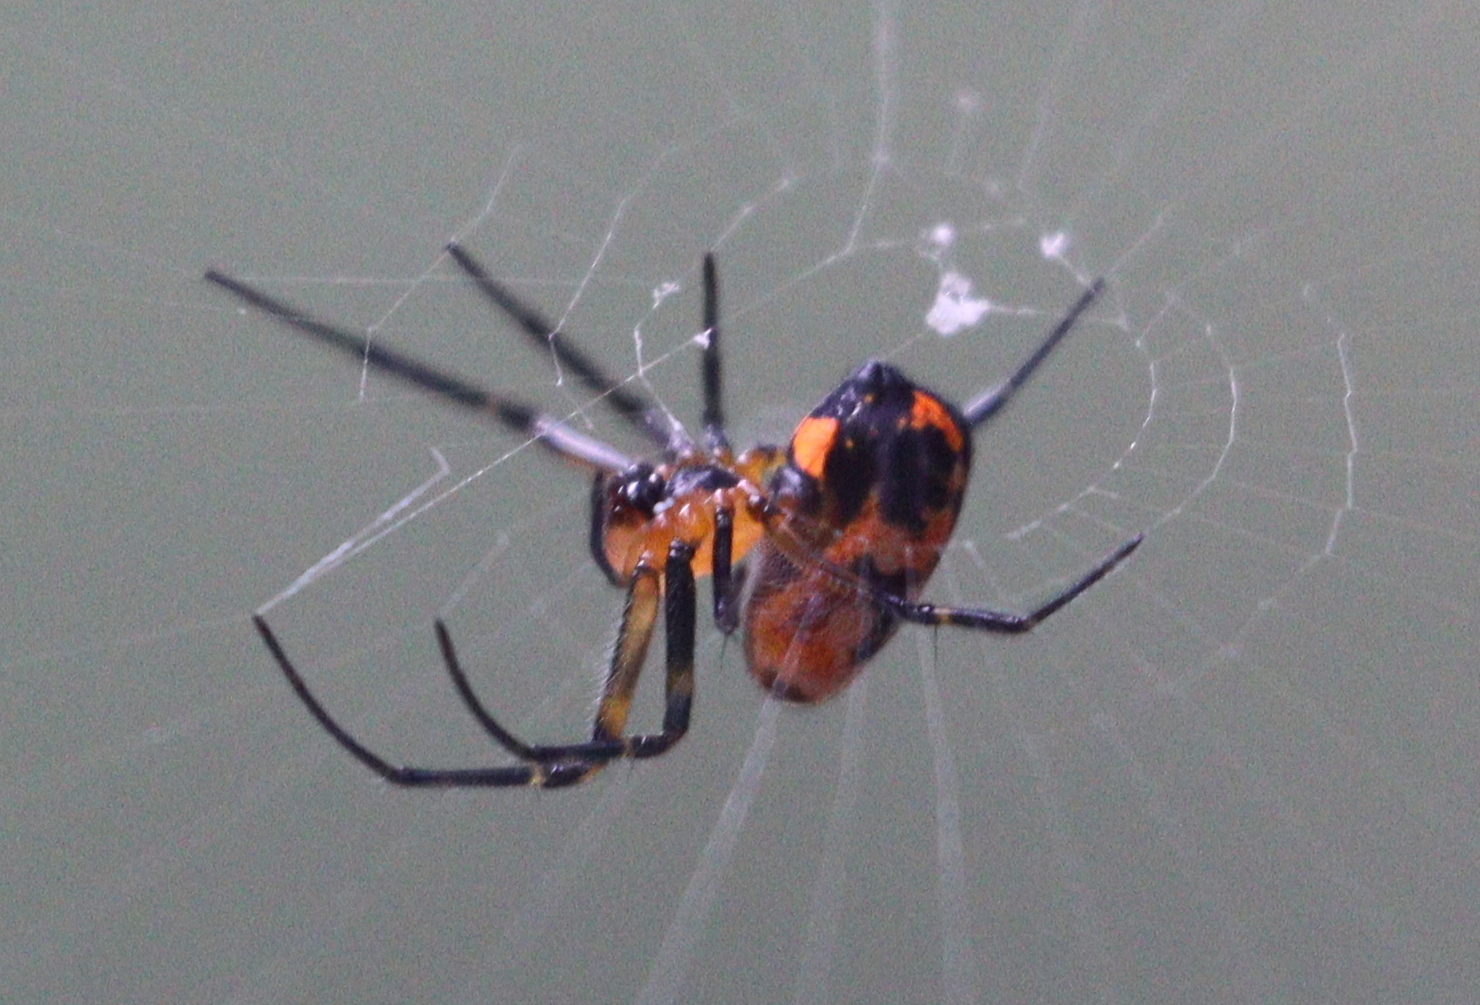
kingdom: Animalia
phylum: Arthropoda
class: Arachnida
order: Araneae
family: Tetragnathidae
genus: Leucauge
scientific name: Leucauge fastigata
